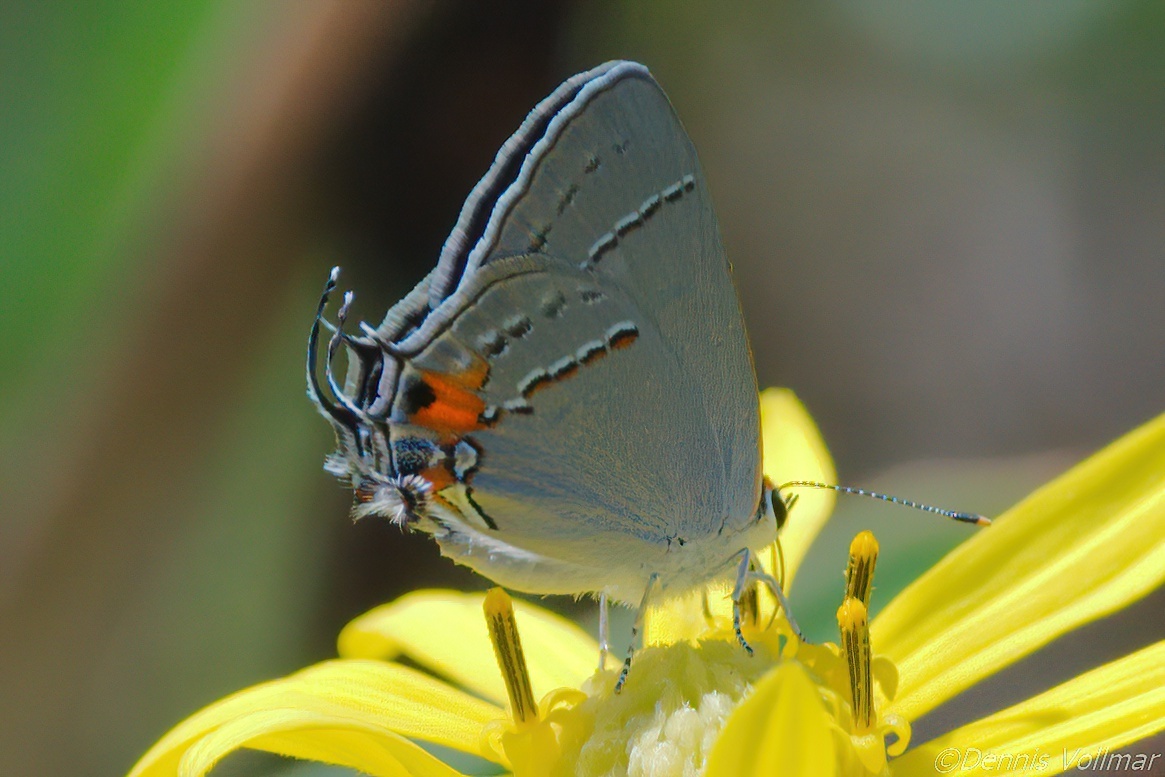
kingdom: Animalia
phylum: Arthropoda
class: Insecta
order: Lepidoptera
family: Lycaenidae
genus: Strymon
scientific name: Strymon melinus
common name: Gray hairstreak
